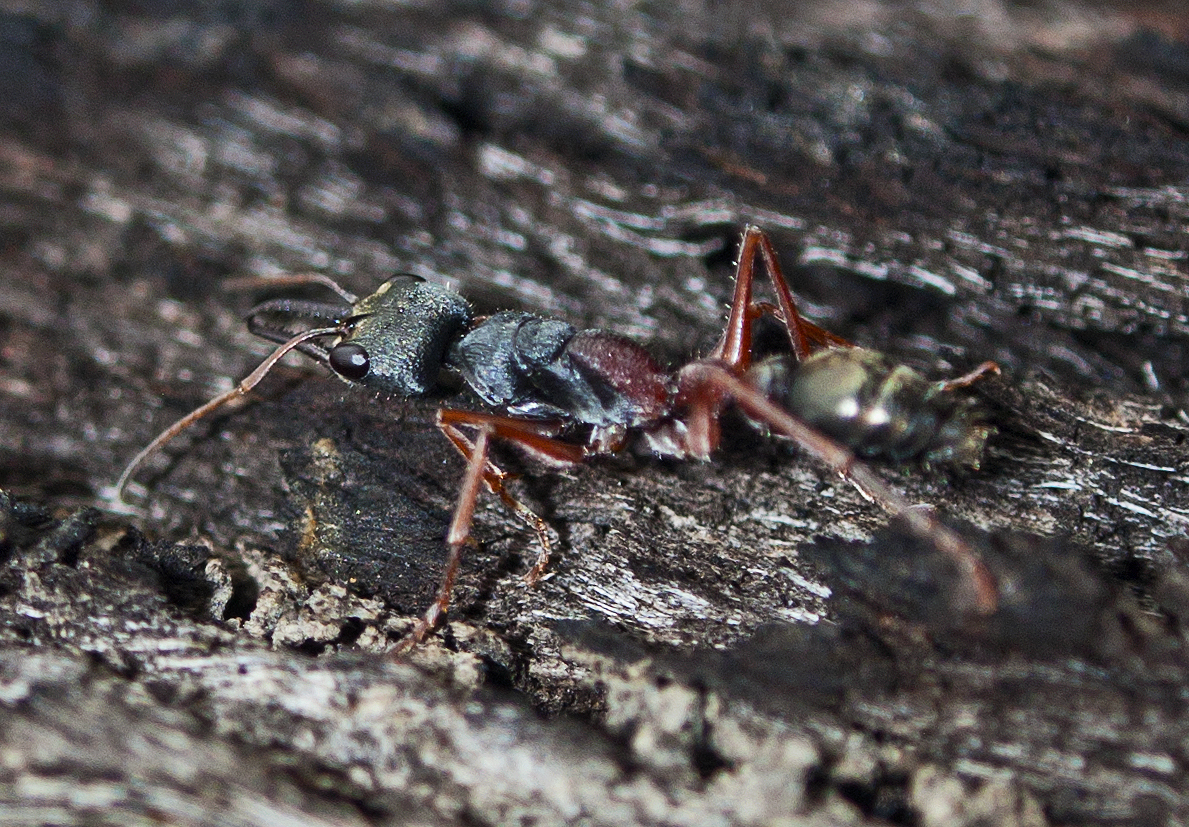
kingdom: Animalia
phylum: Arthropoda
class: Insecta
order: Hymenoptera
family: Formicidae
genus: Myrmecia
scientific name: Myrmecia varians
